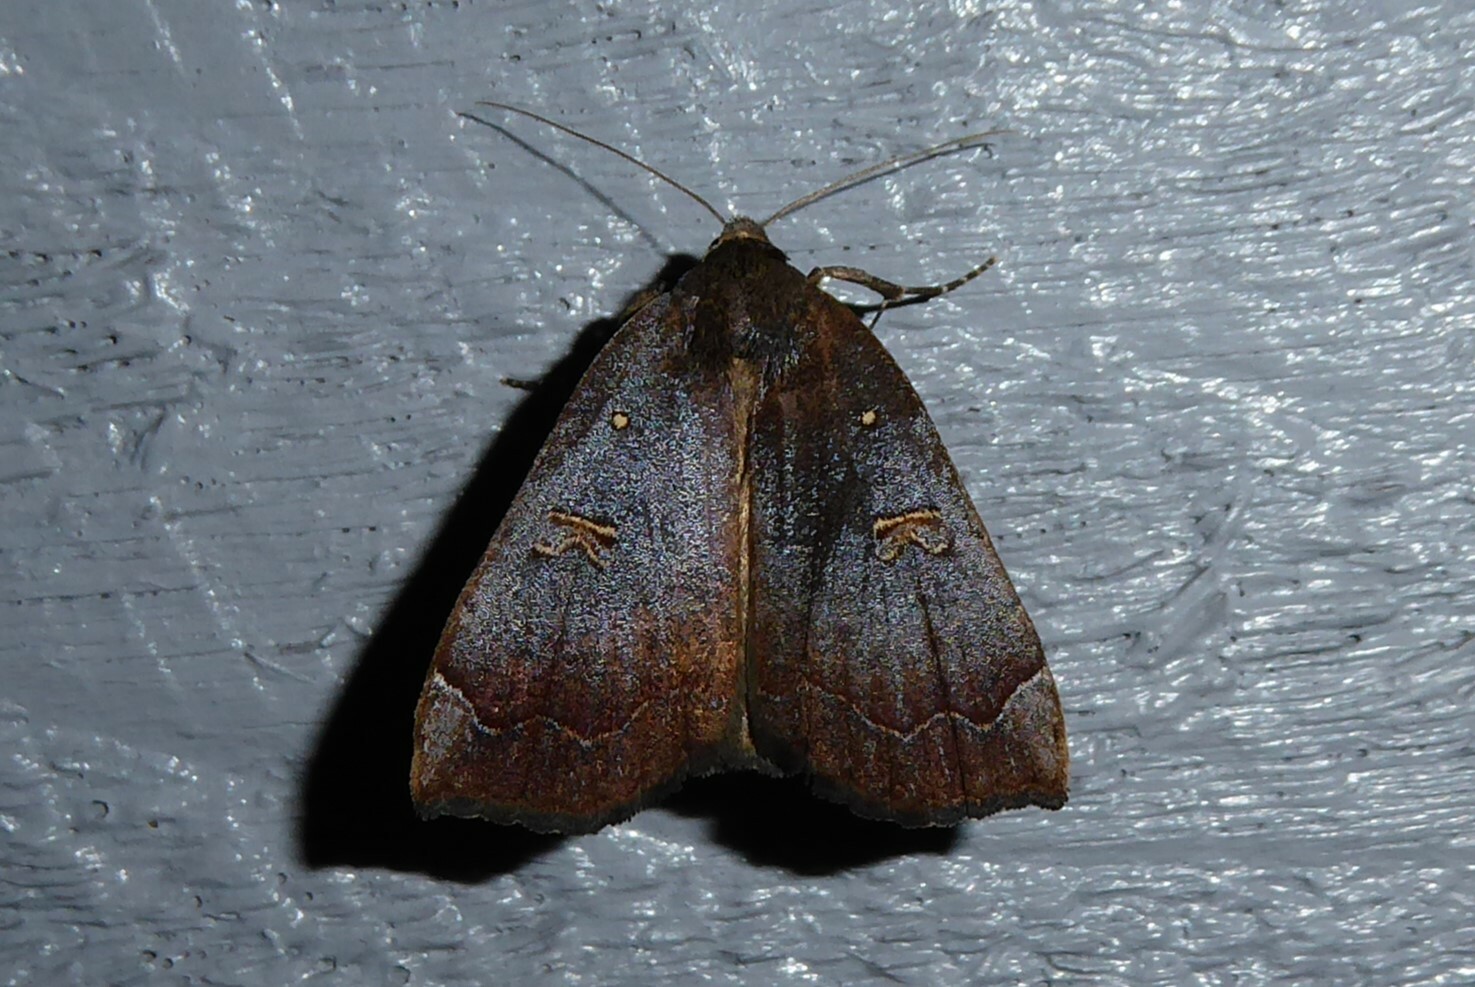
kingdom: Animalia
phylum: Arthropoda
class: Insecta
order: Lepidoptera
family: Erebidae
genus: Rhapsa
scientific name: Rhapsa scotosialis
